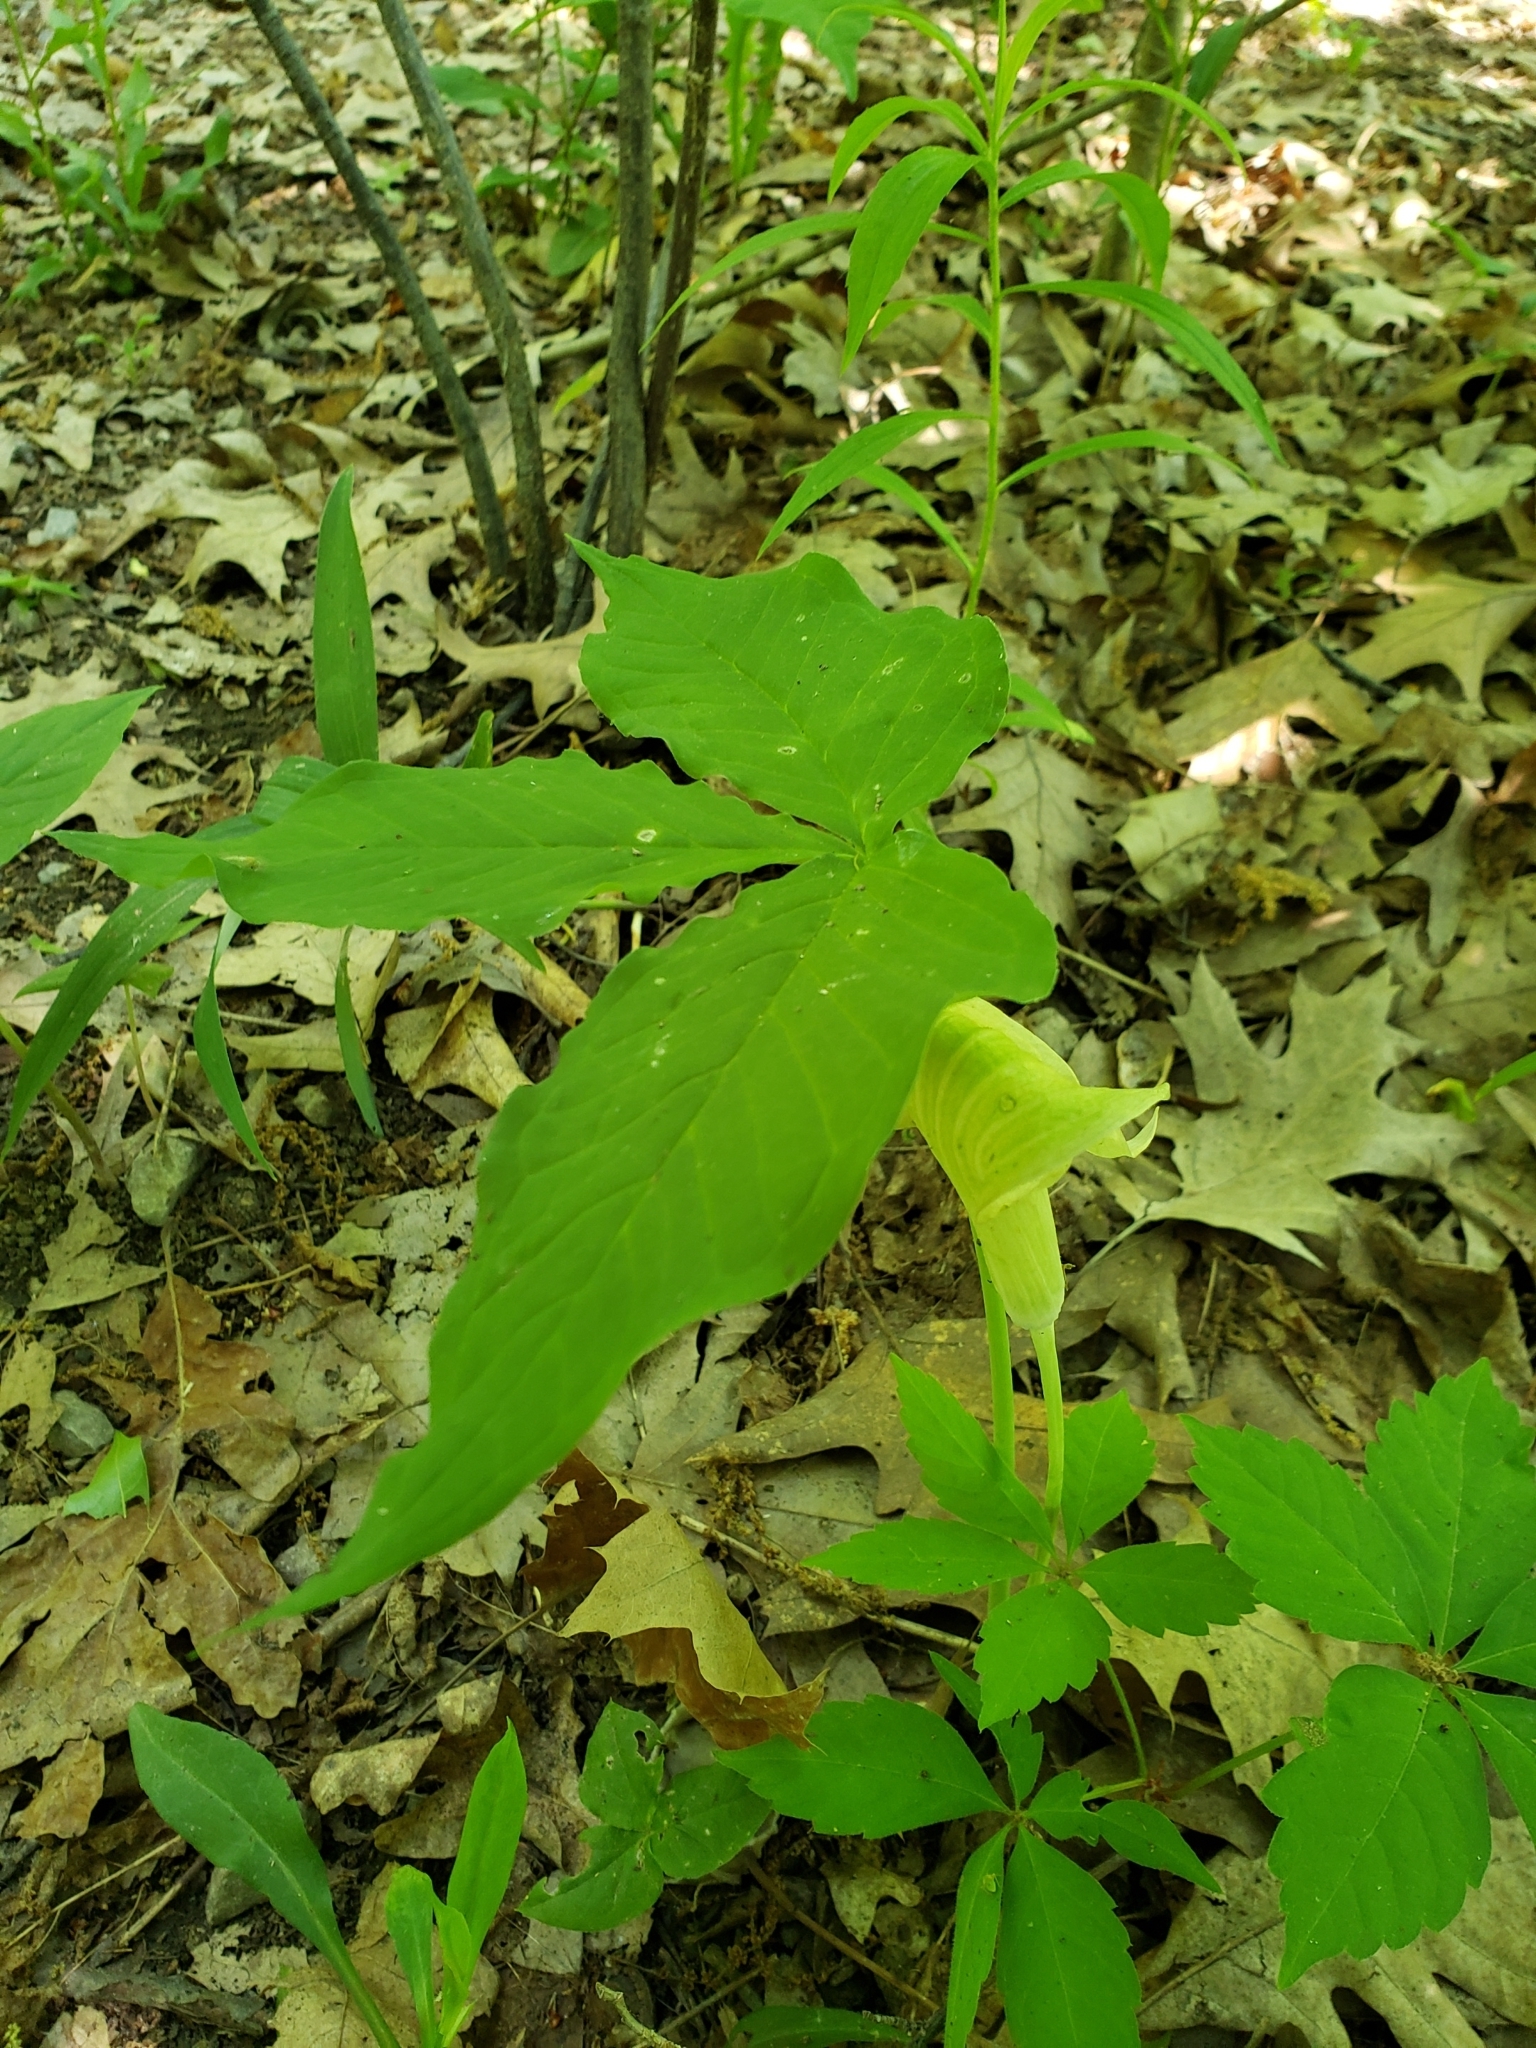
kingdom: Plantae
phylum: Tracheophyta
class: Liliopsida
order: Alismatales
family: Araceae
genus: Arisaema
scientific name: Arisaema triphyllum
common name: Jack-in-the-pulpit
